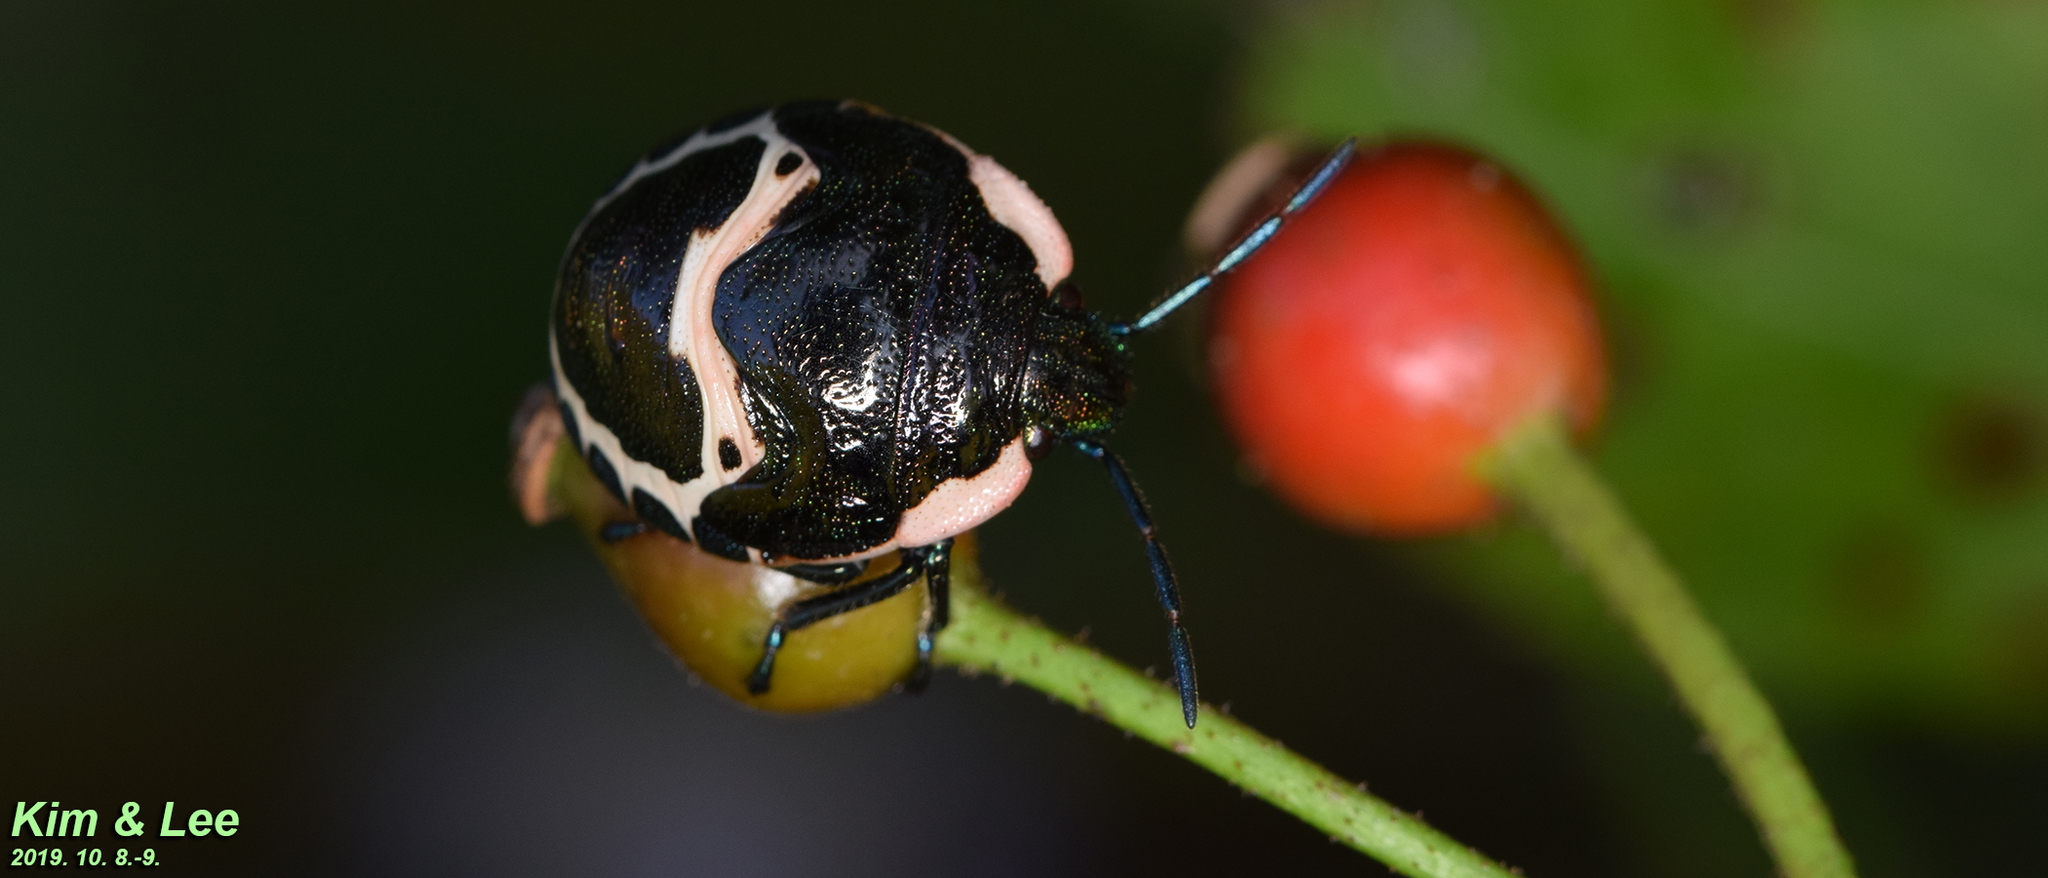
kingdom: Animalia
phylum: Arthropoda
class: Insecta
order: Hemiptera
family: Scutelleridae
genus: Poecilocoris
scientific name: Poecilocoris lewisi
